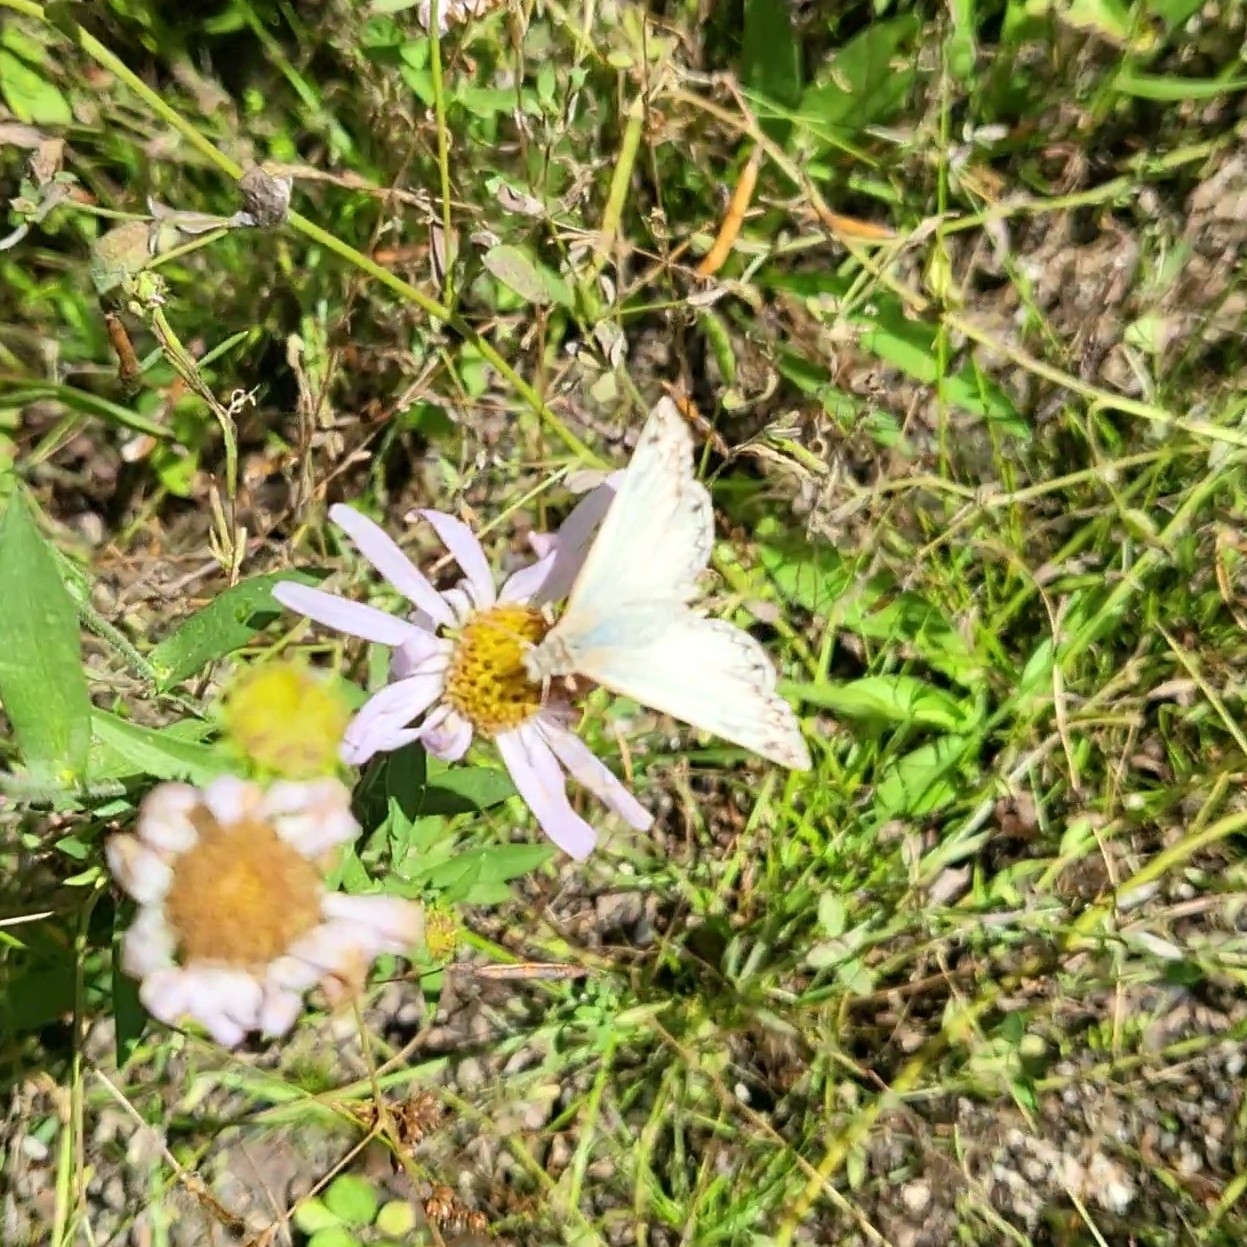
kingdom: Animalia
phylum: Arthropoda
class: Insecta
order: Lepidoptera
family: Hesperiidae
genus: Heliopetes
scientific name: Heliopetes ericetorum
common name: Northern white-skipper
